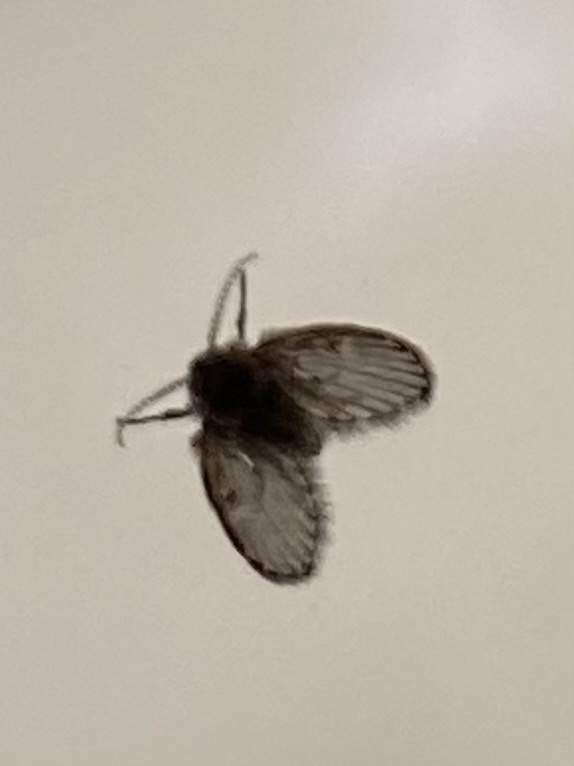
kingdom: Animalia
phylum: Arthropoda
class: Insecta
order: Diptera
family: Psychodidae
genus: Clogmia
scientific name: Clogmia albipunctatus
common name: White-spotted moth fly
